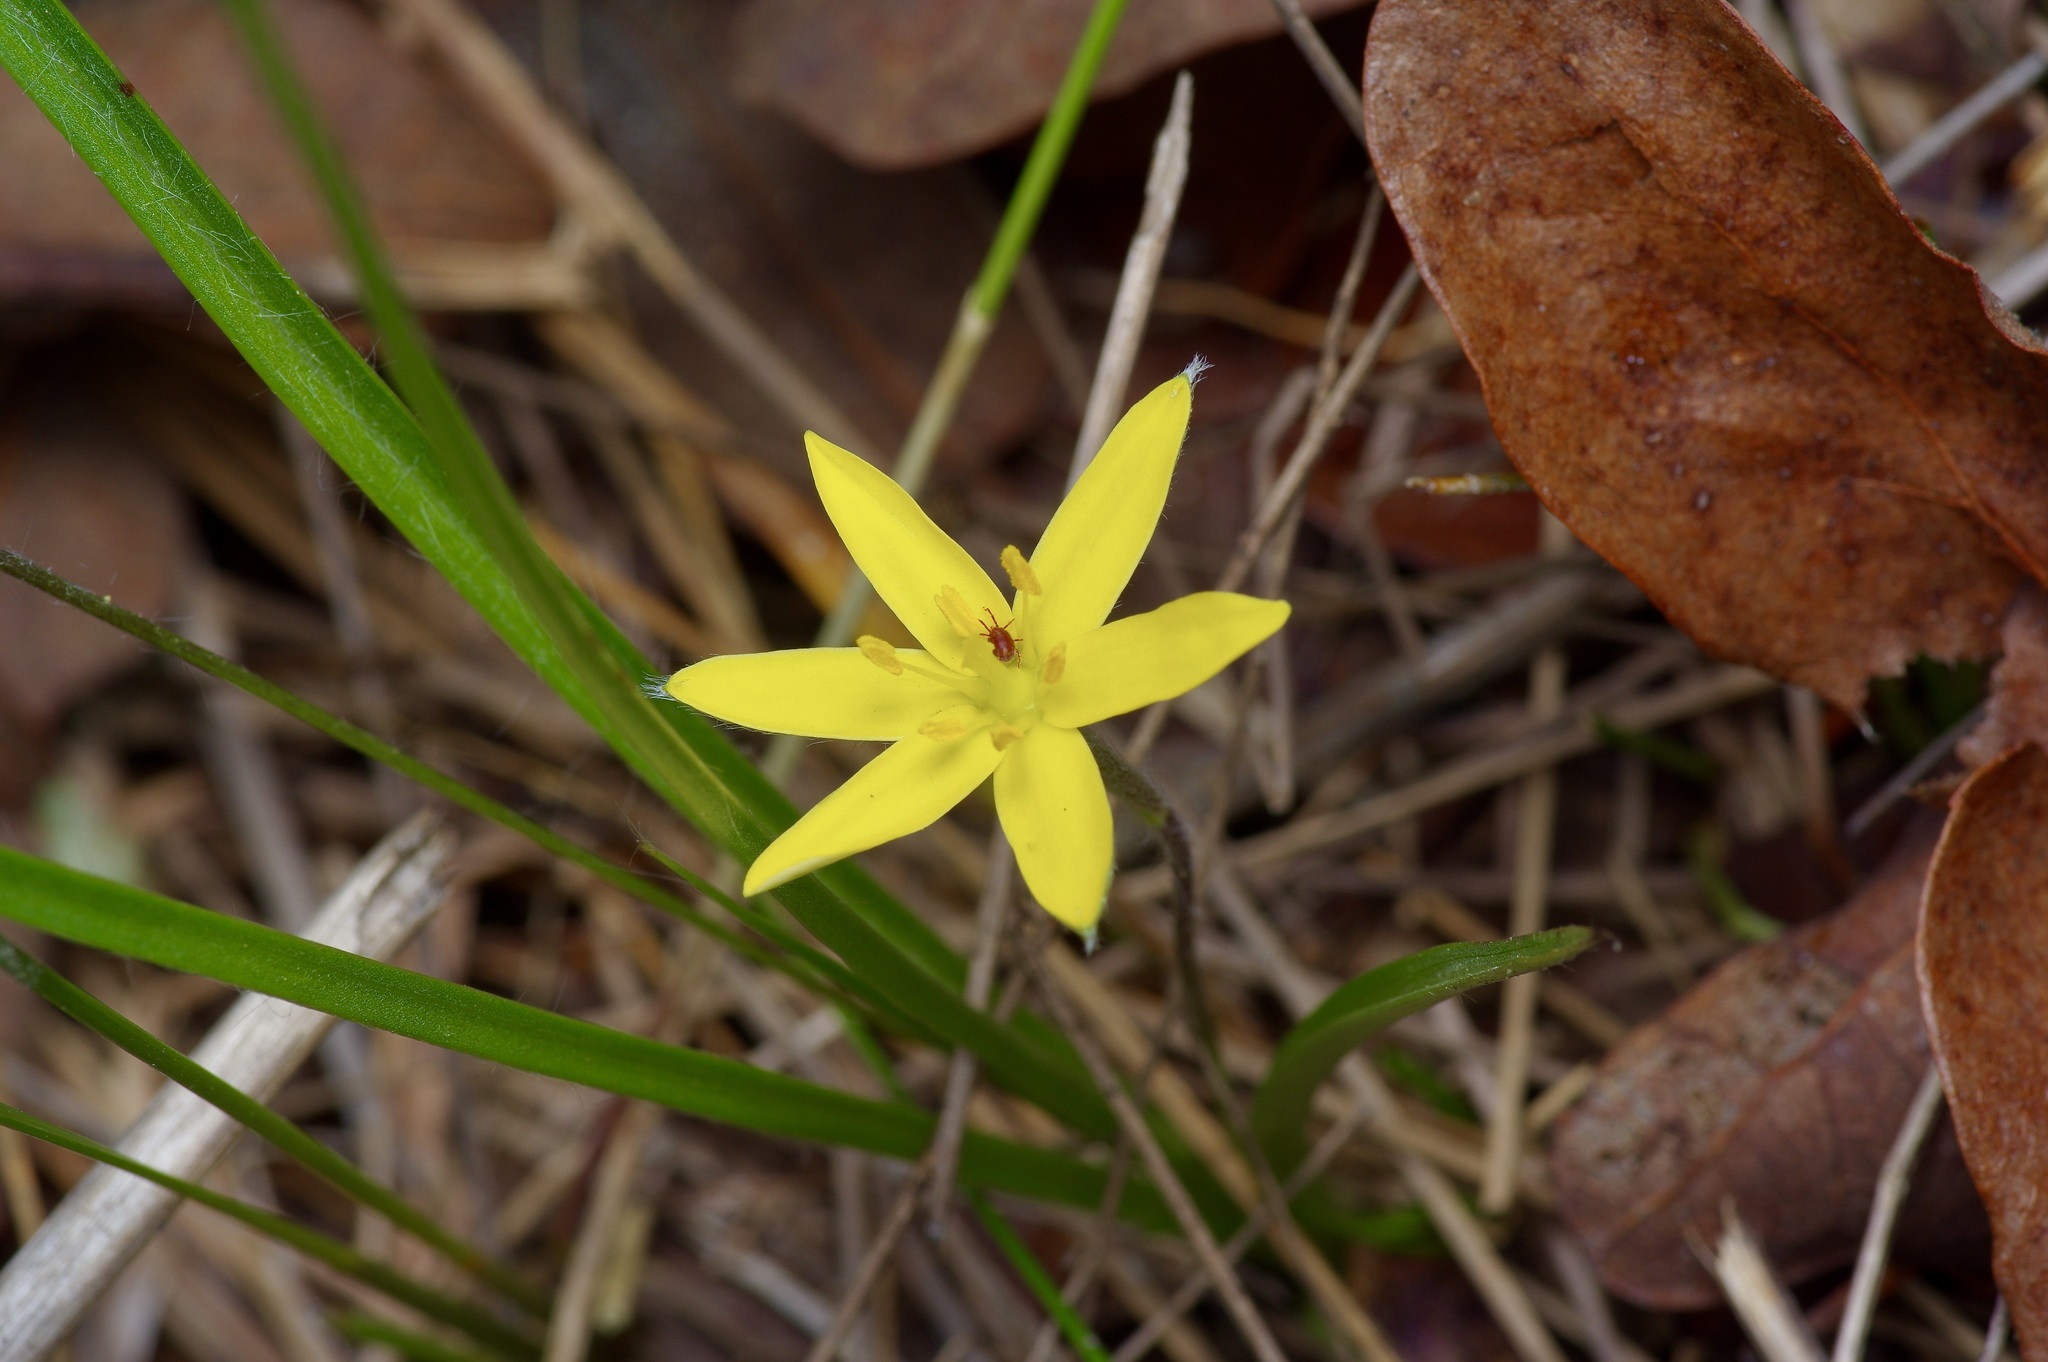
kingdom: Plantae
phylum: Tracheophyta
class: Liliopsida
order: Asparagales
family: Hypoxidaceae
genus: Hypoxis
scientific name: Hypoxis hirsuta
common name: Common goldstar
